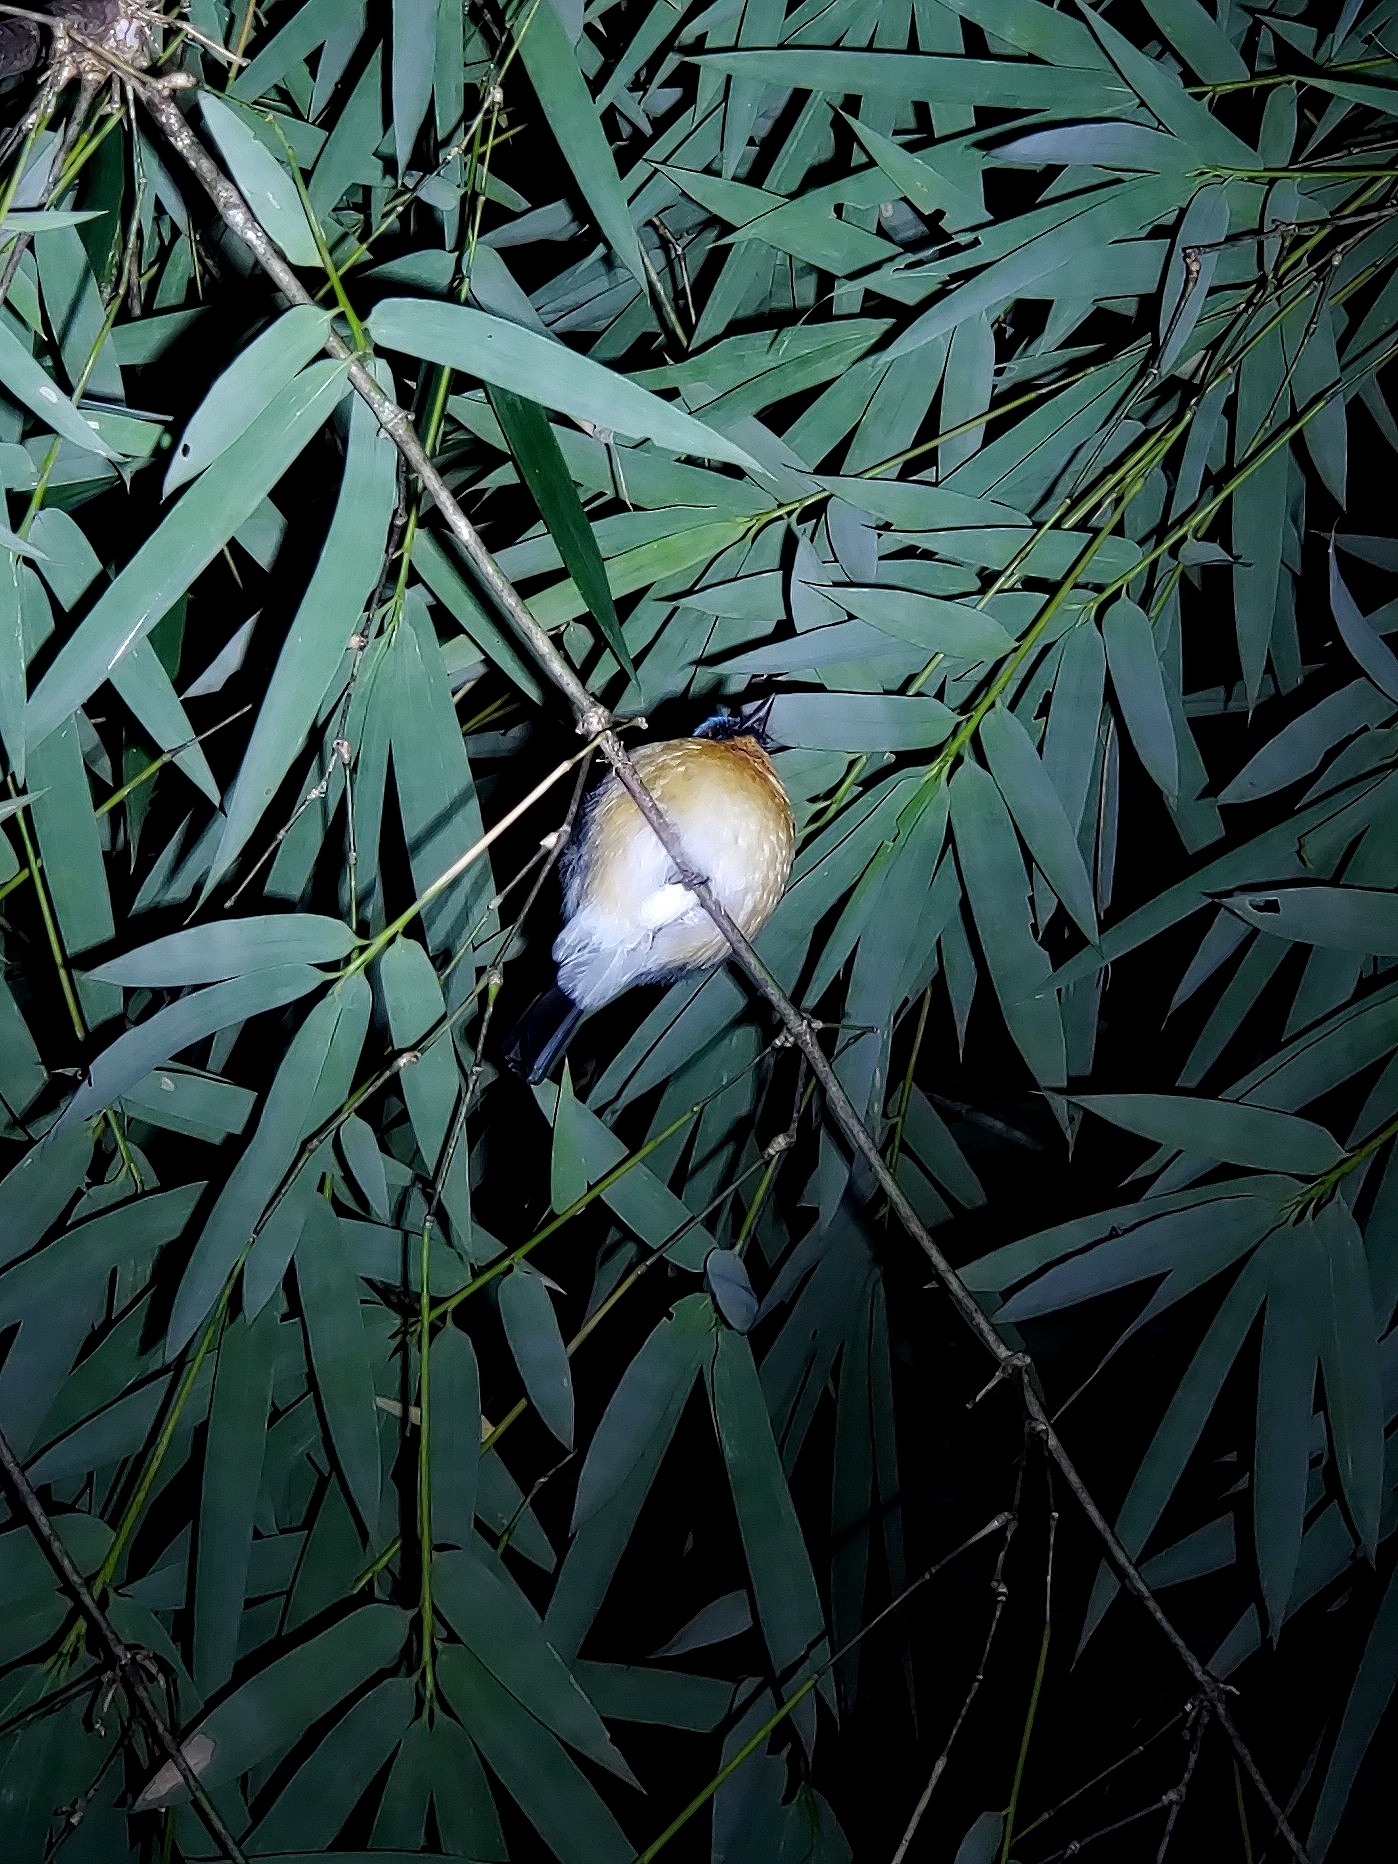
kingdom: Animalia
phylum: Chordata
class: Aves
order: Passeriformes
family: Muscicapidae
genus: Cyornis
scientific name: Cyornis tickelliae
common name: Tickell's blue flycatcher
